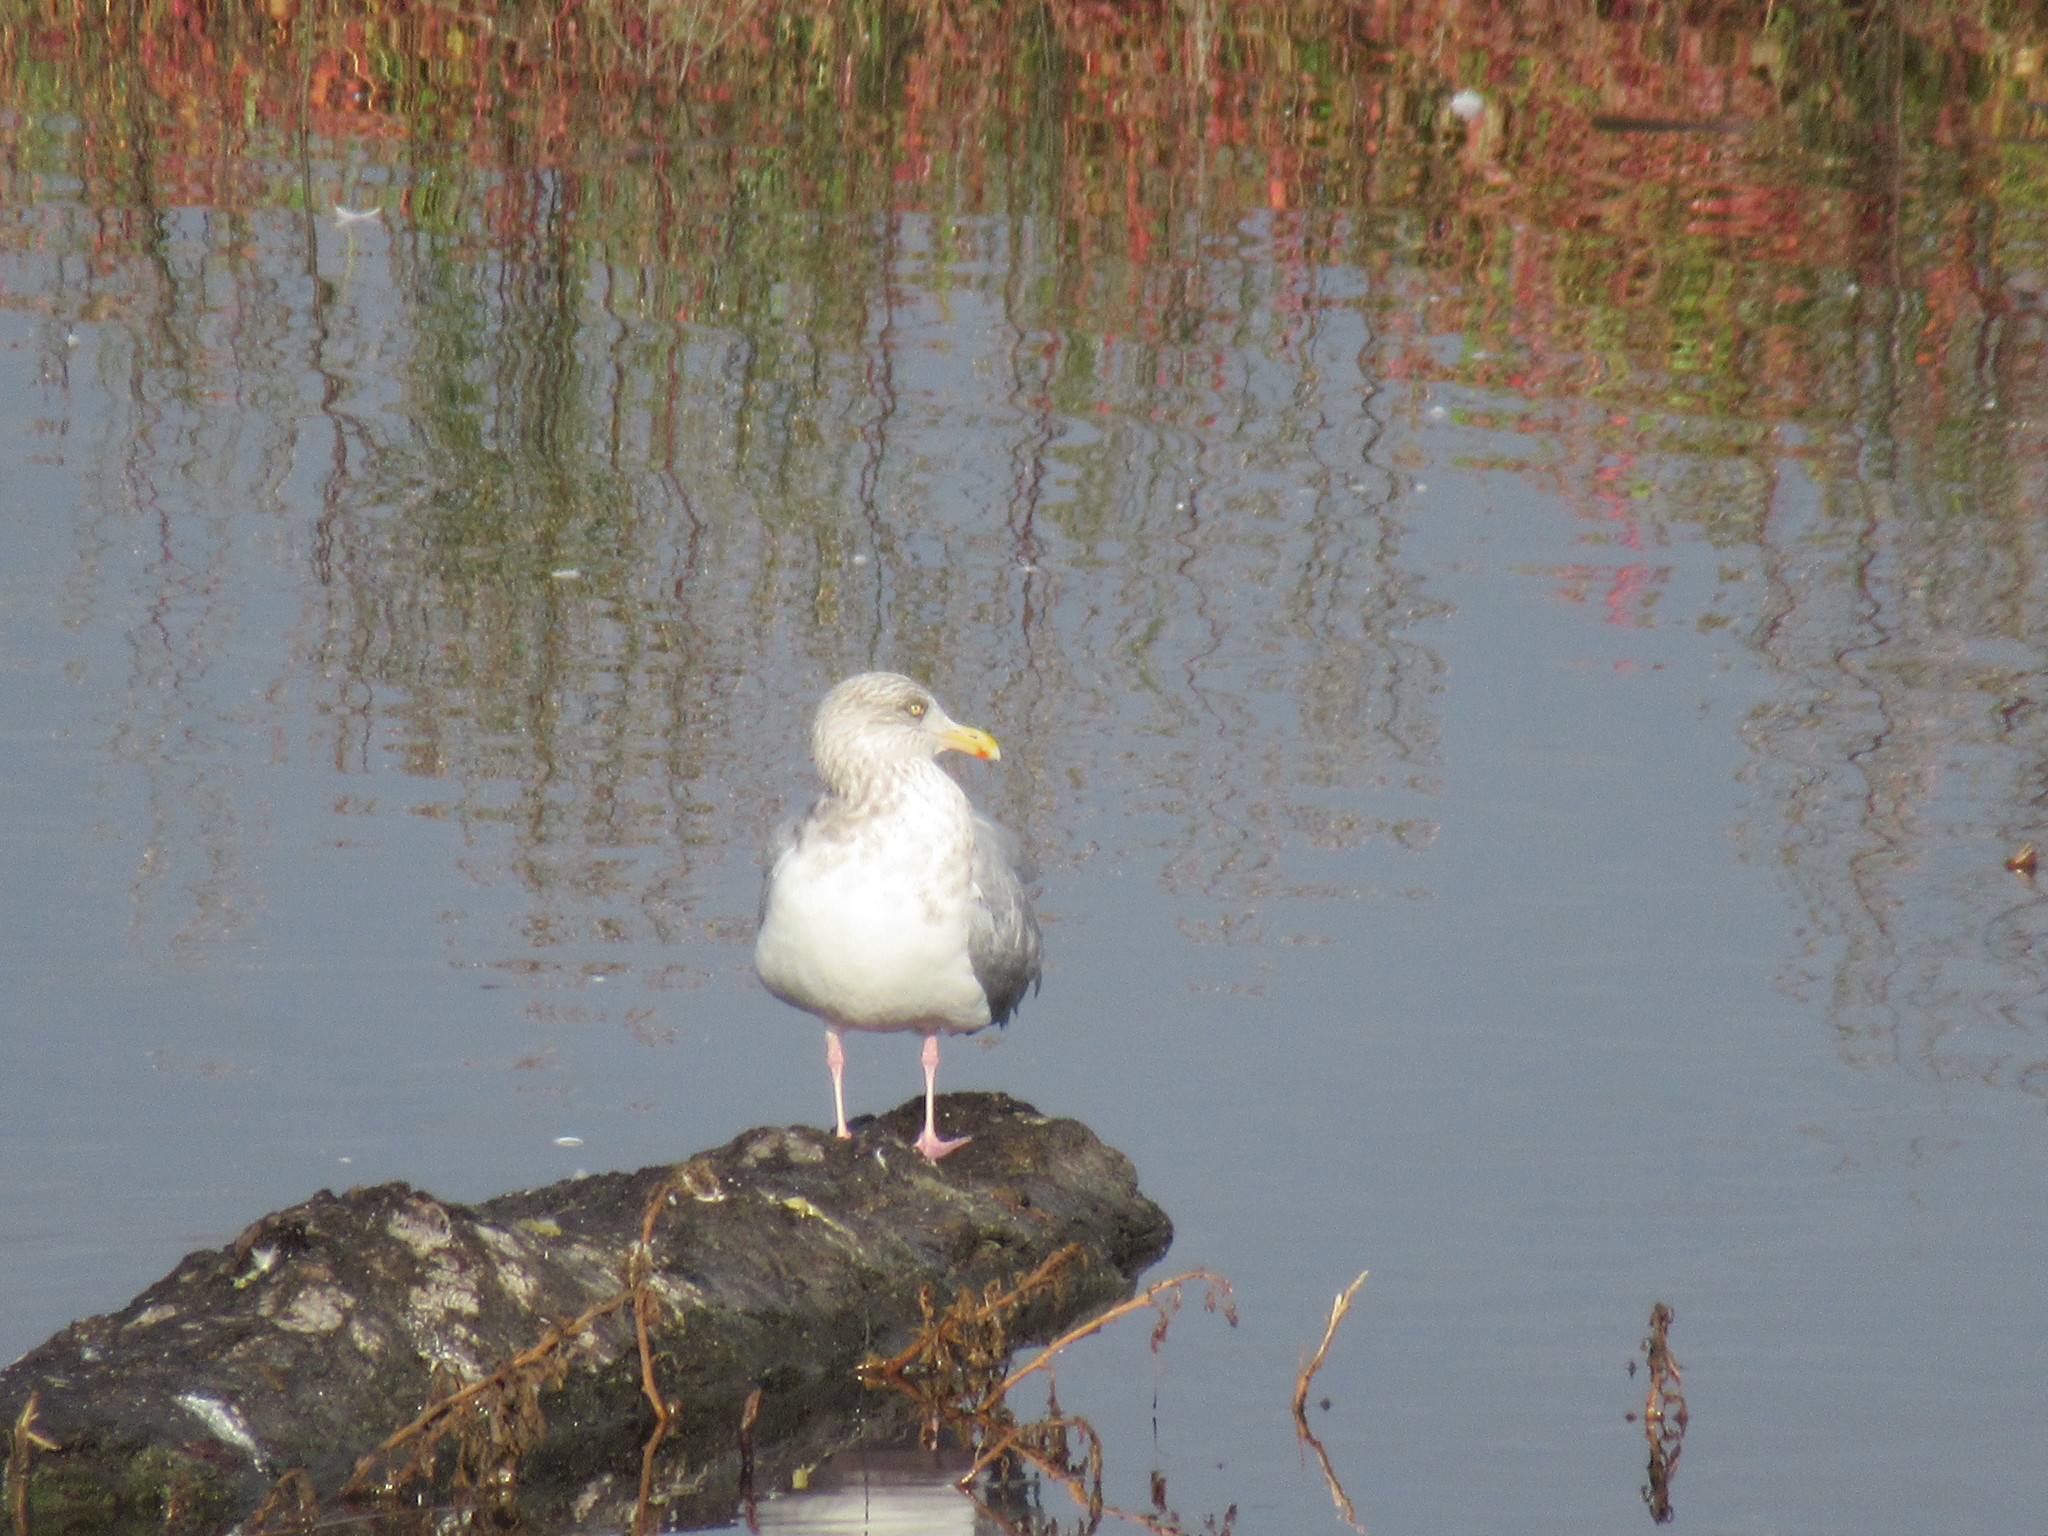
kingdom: Animalia
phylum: Chordata
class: Aves
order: Charadriiformes
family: Laridae
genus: Larus
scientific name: Larus argentatus
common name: Herring gull
